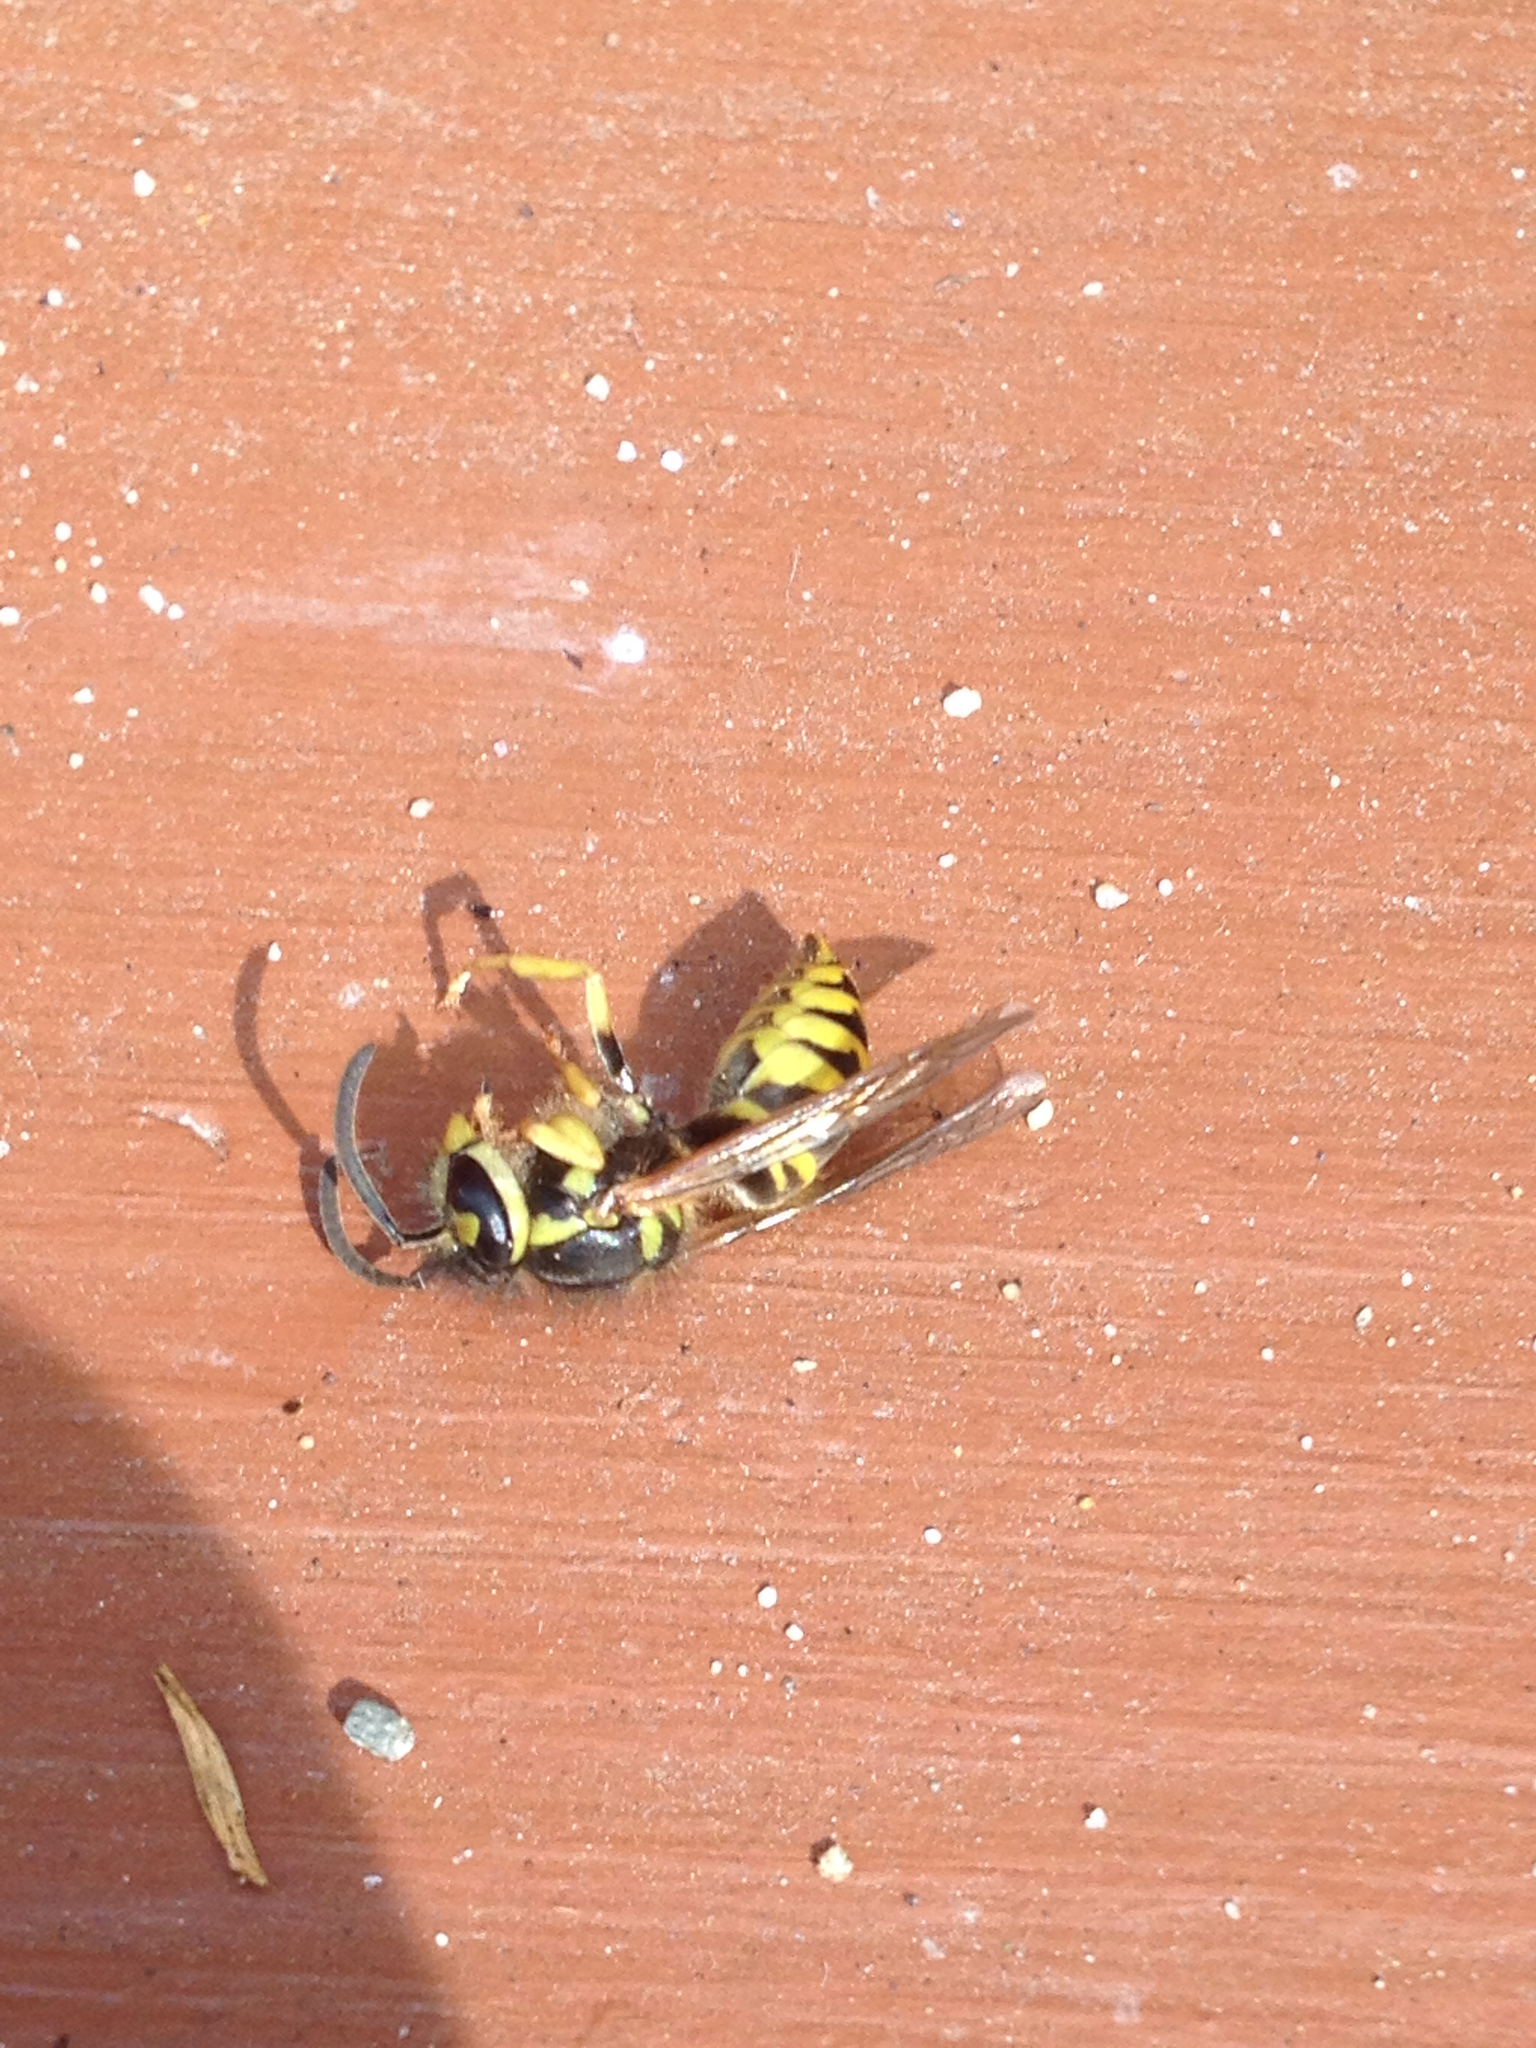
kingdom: Animalia
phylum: Arthropoda
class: Insecta
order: Hymenoptera
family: Vespidae
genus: Vespula
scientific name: Vespula maculifrons
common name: Eastern yellowjacket
